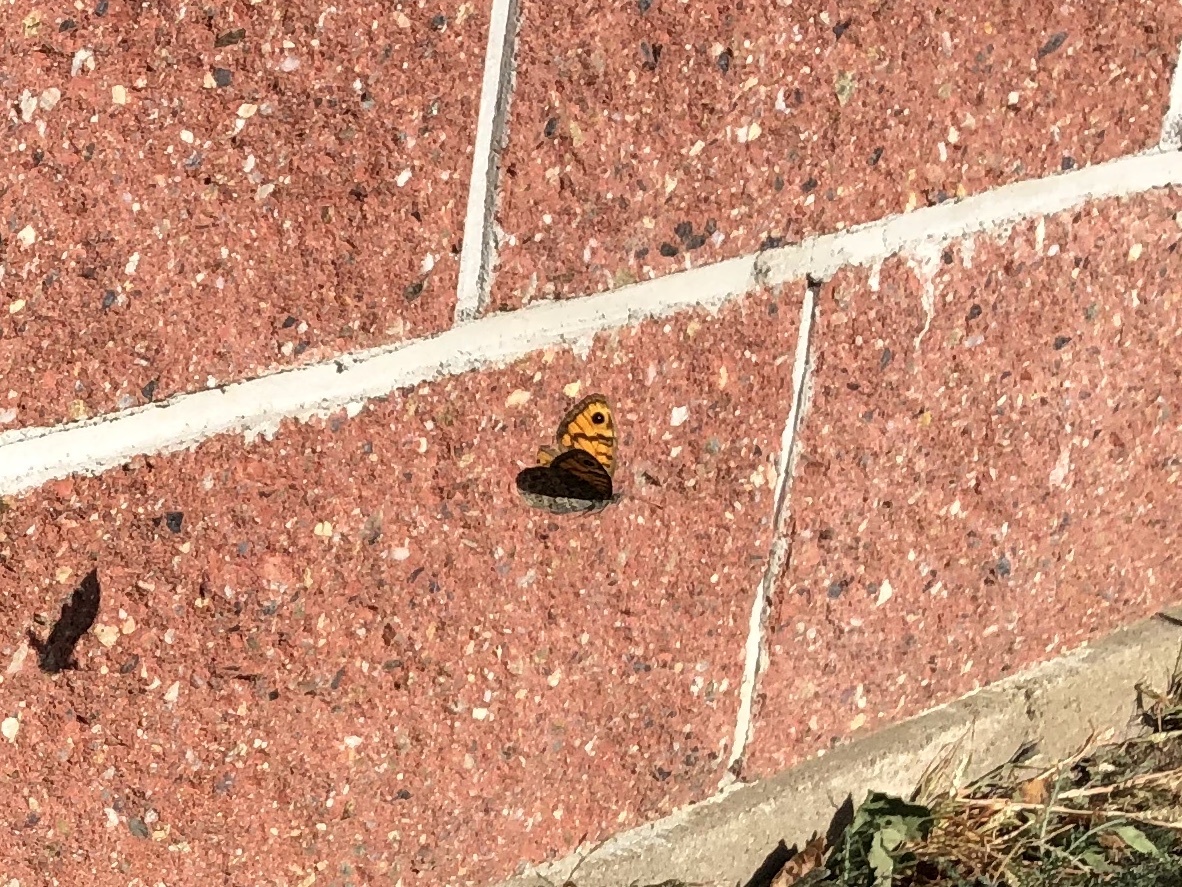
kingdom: Animalia
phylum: Arthropoda
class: Insecta
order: Lepidoptera
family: Nymphalidae
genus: Pararge
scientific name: Pararge Lasiommata megera
